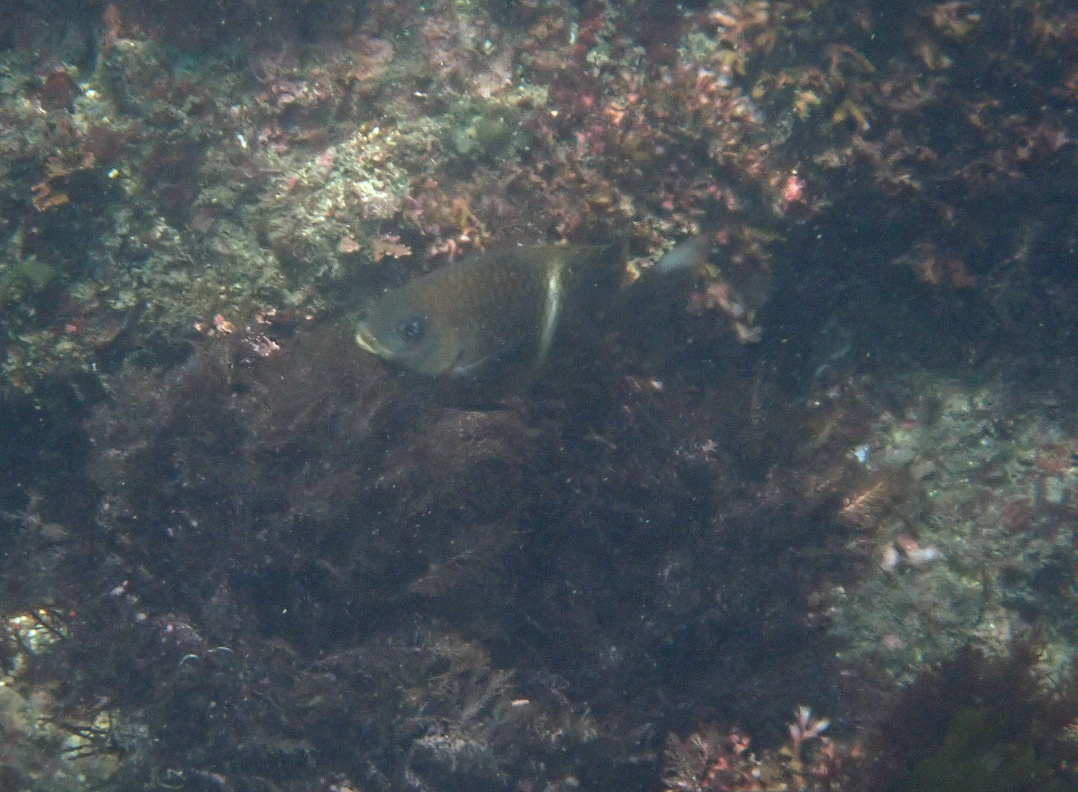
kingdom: Animalia
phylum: Chordata
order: Perciformes
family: Pomacentridae
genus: Plectroglyphidodon
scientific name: Plectroglyphidodon leucozonus
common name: White-band damsel
